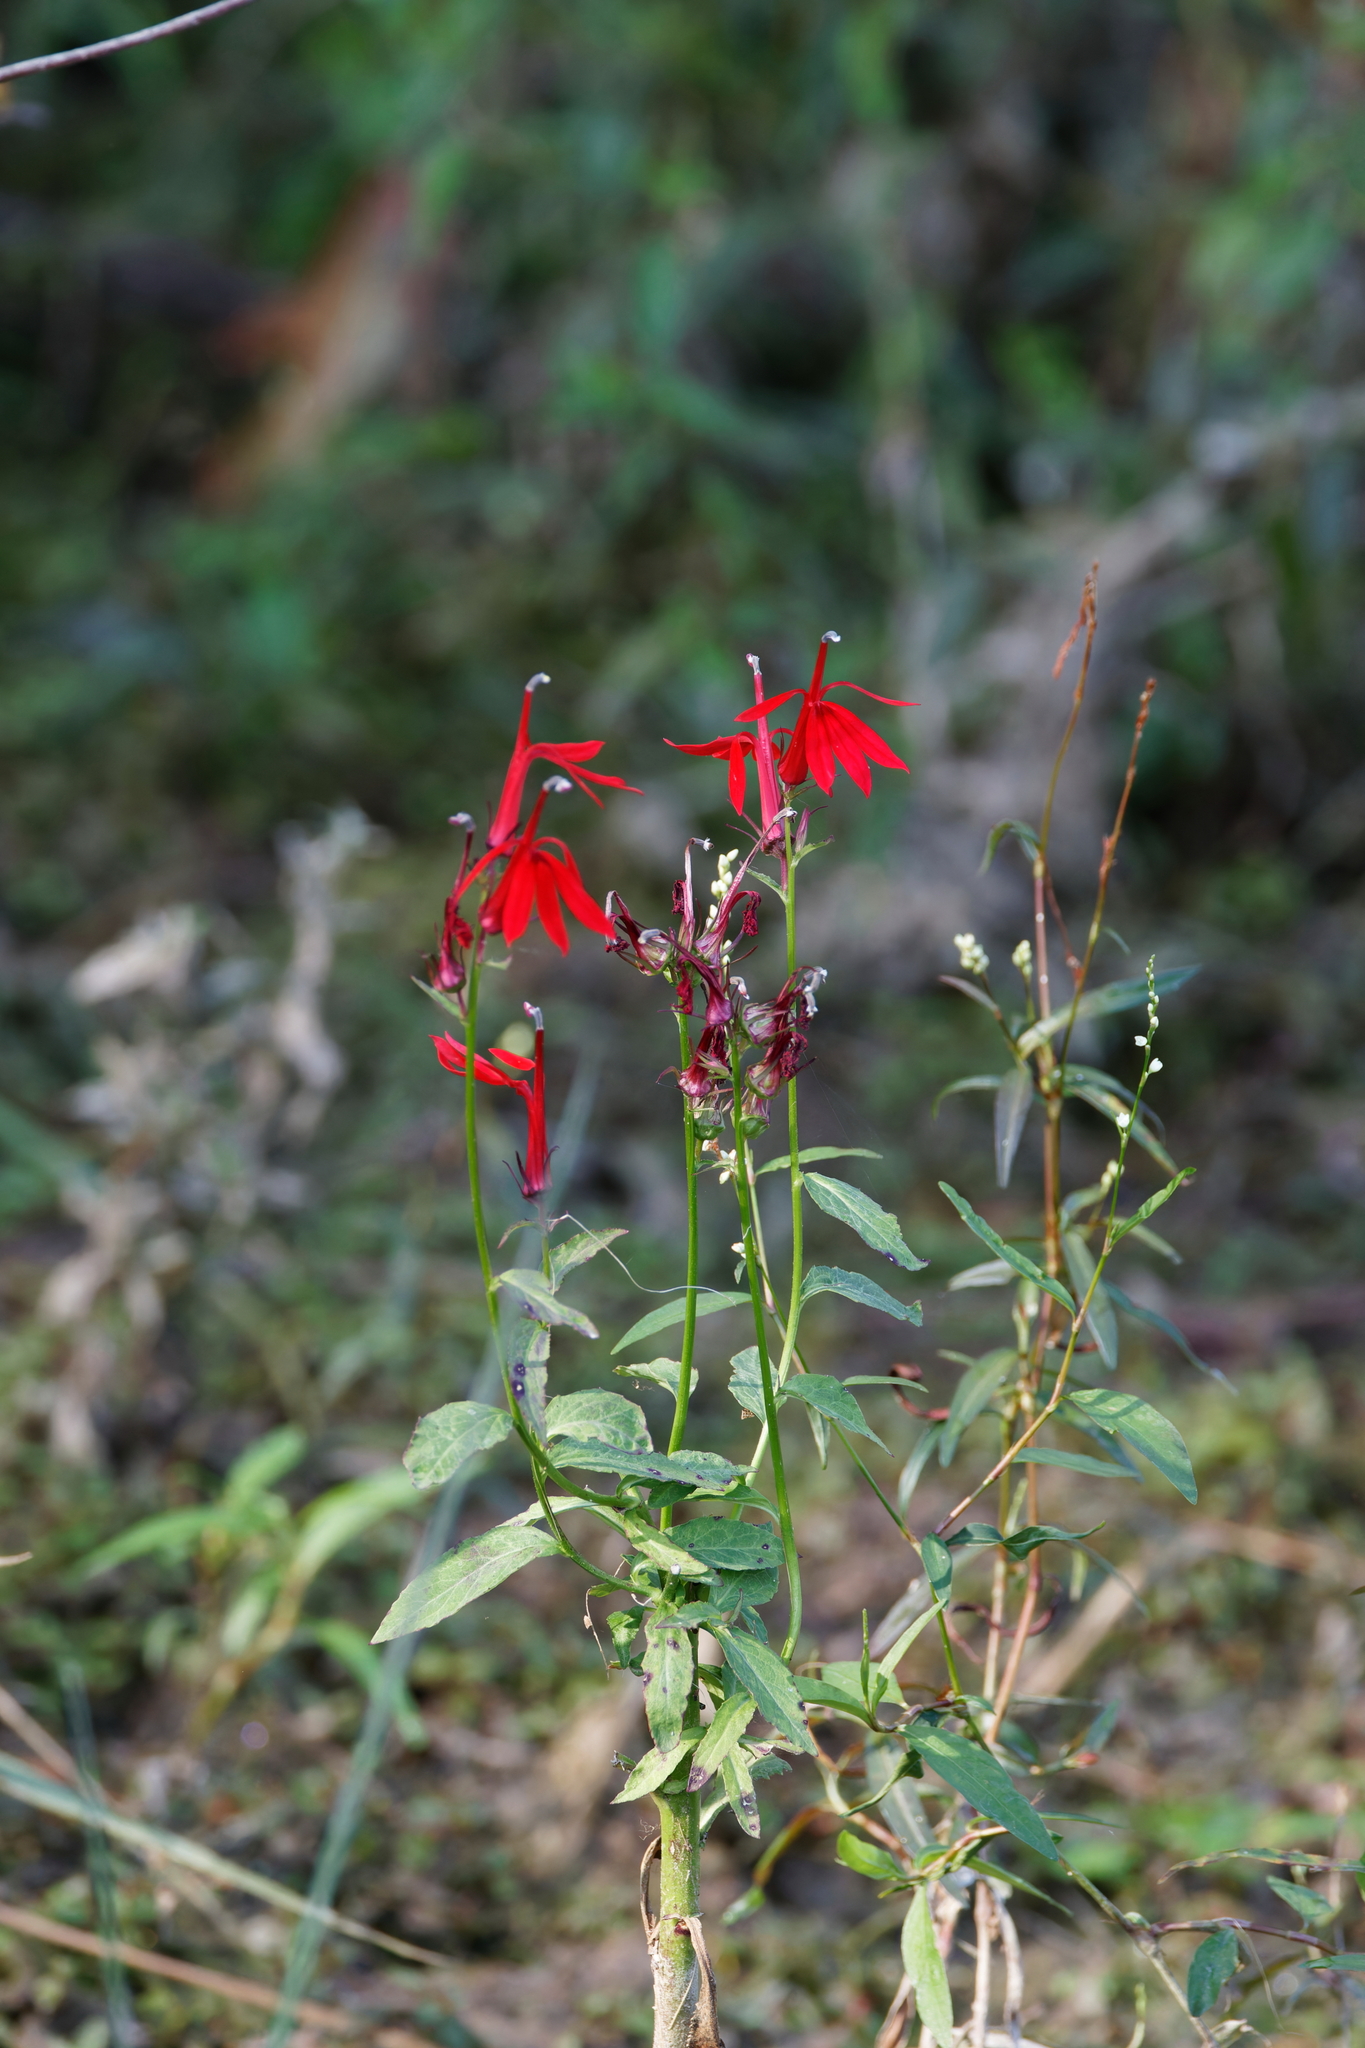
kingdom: Plantae
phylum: Tracheophyta
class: Magnoliopsida
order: Asterales
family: Campanulaceae
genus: Lobelia
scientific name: Lobelia cardinalis
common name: Cardinal flower
